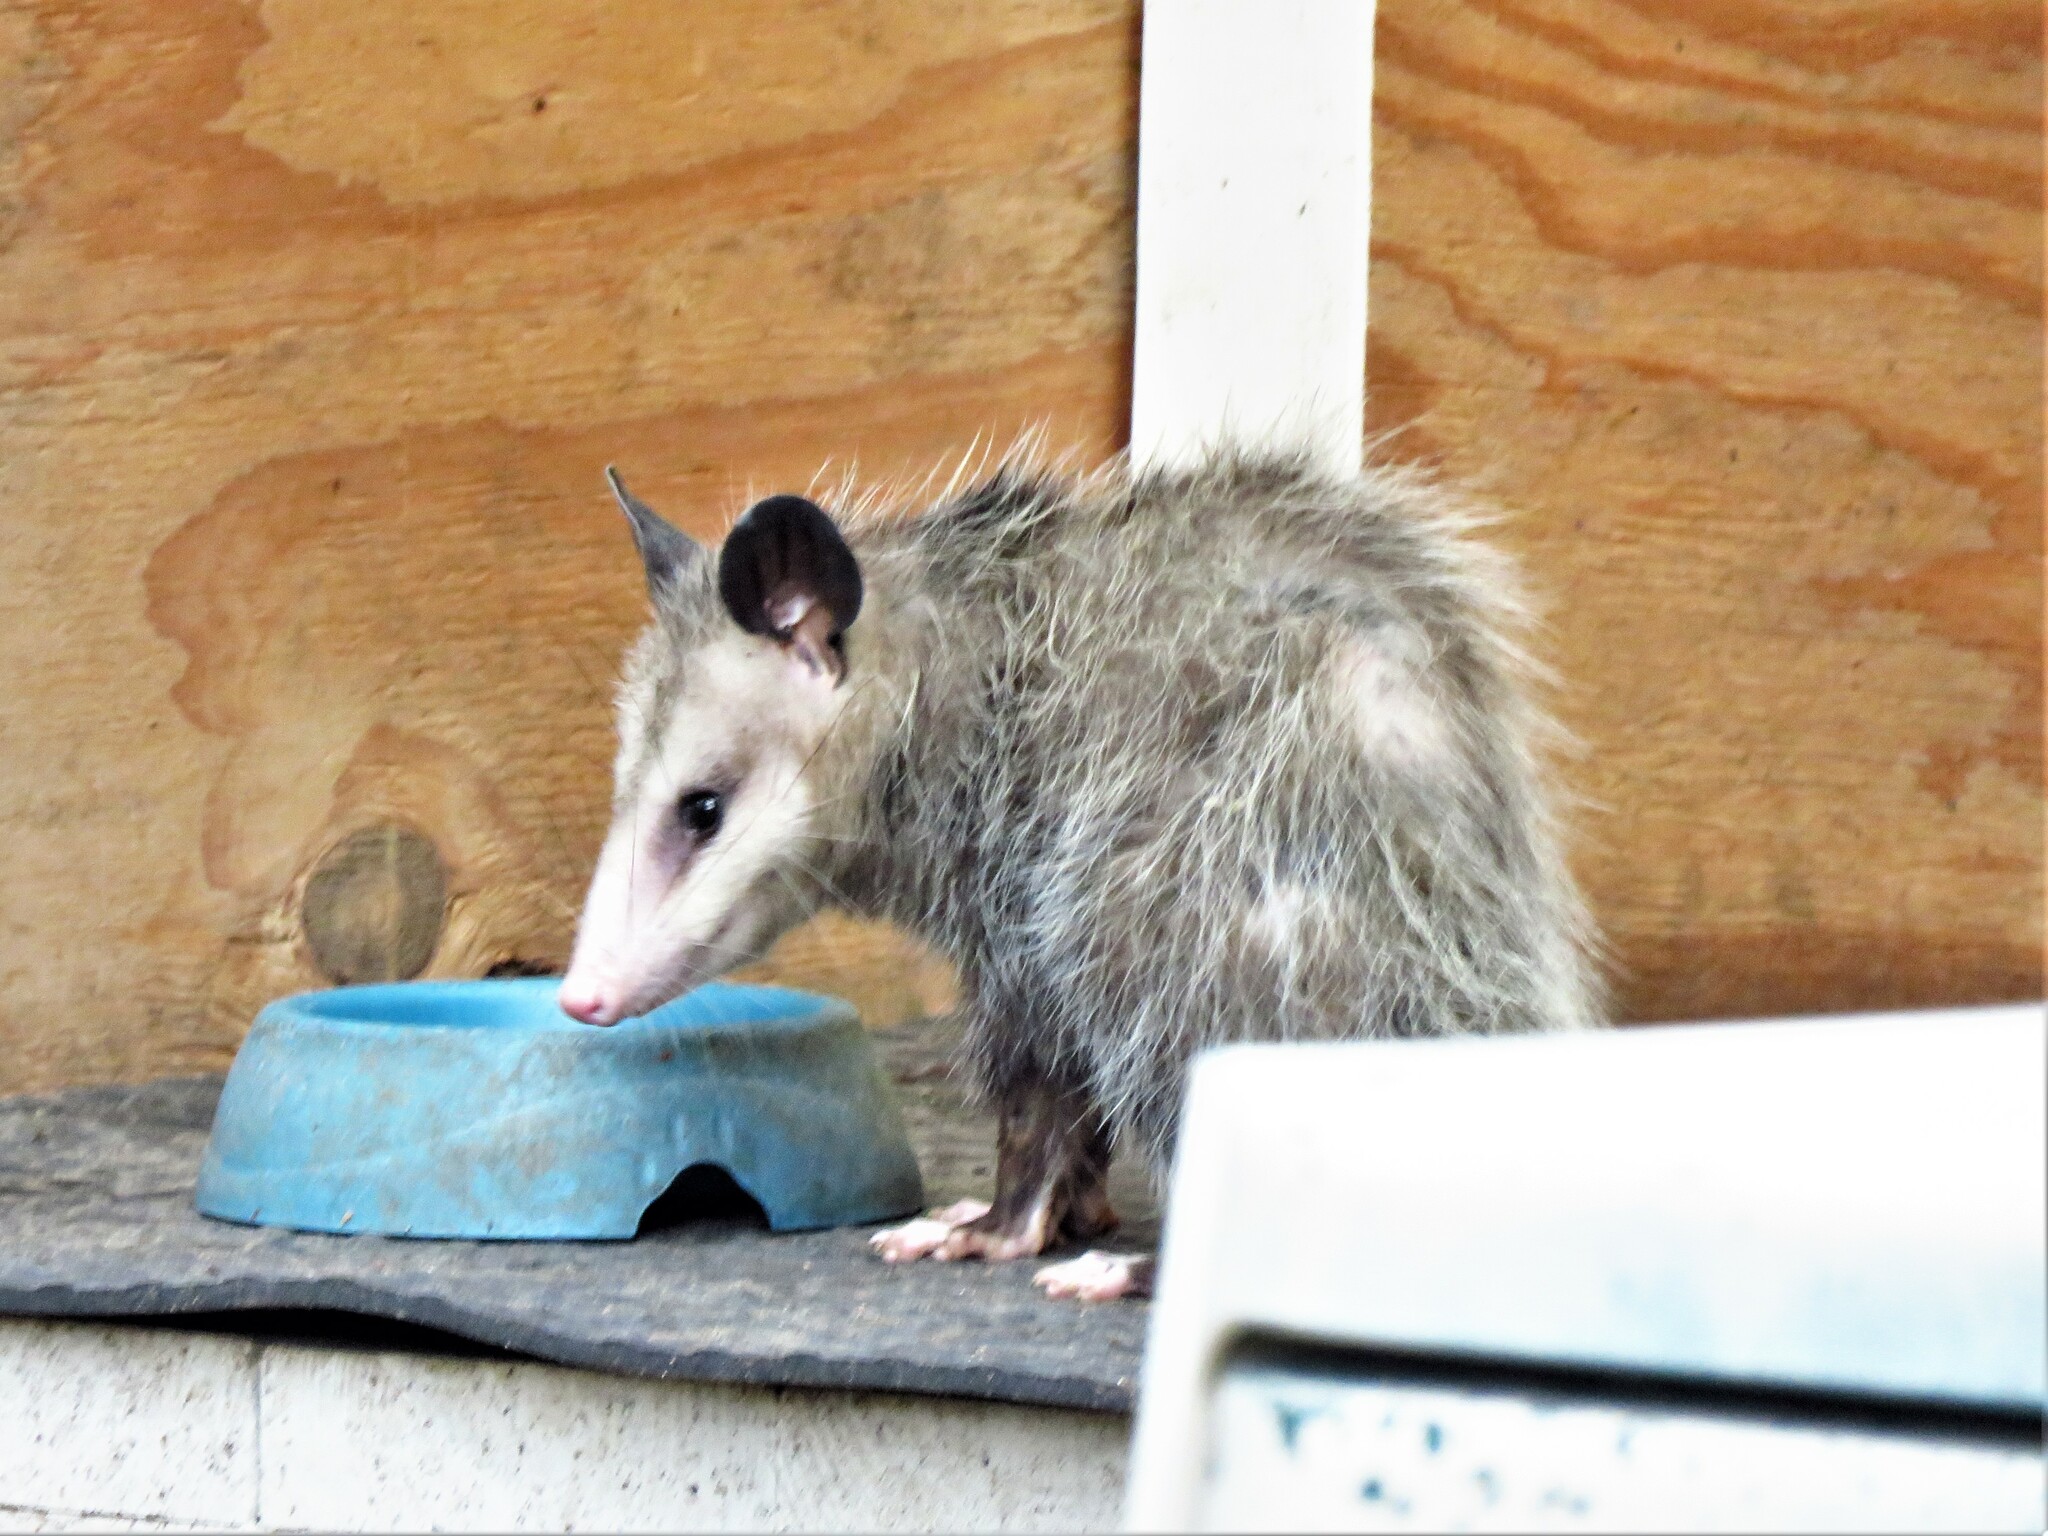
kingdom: Animalia
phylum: Chordata
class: Mammalia
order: Didelphimorphia
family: Didelphidae
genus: Didelphis
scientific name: Didelphis virginiana
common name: Virginia opossum
